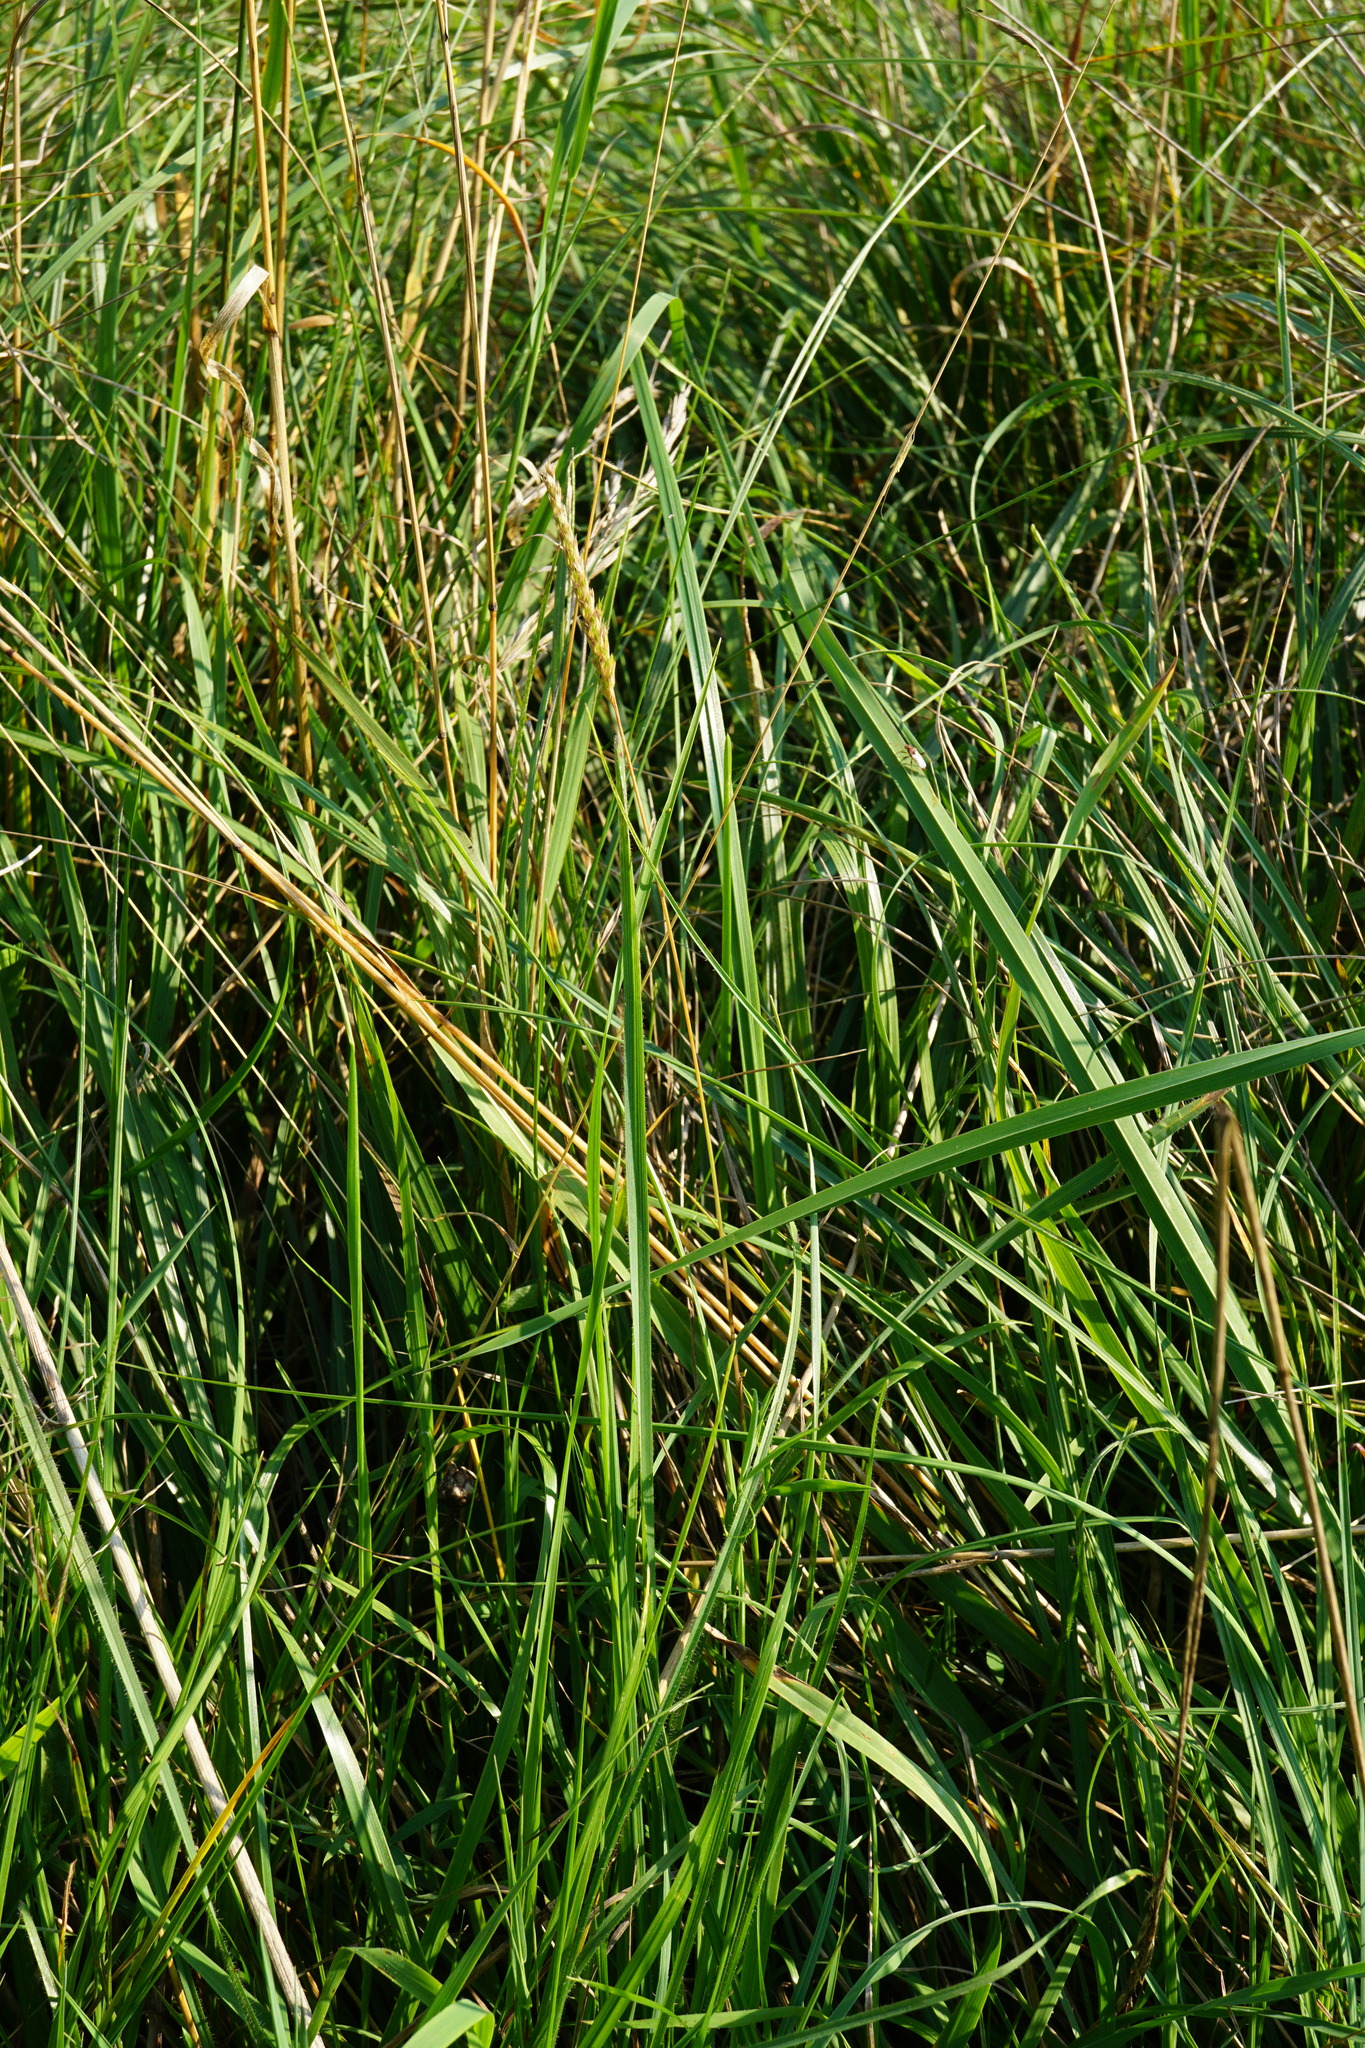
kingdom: Plantae
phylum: Tracheophyta
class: Liliopsida
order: Poales
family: Poaceae
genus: Cynosurus
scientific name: Cynosurus cristatus
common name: Crested dog's-tail
